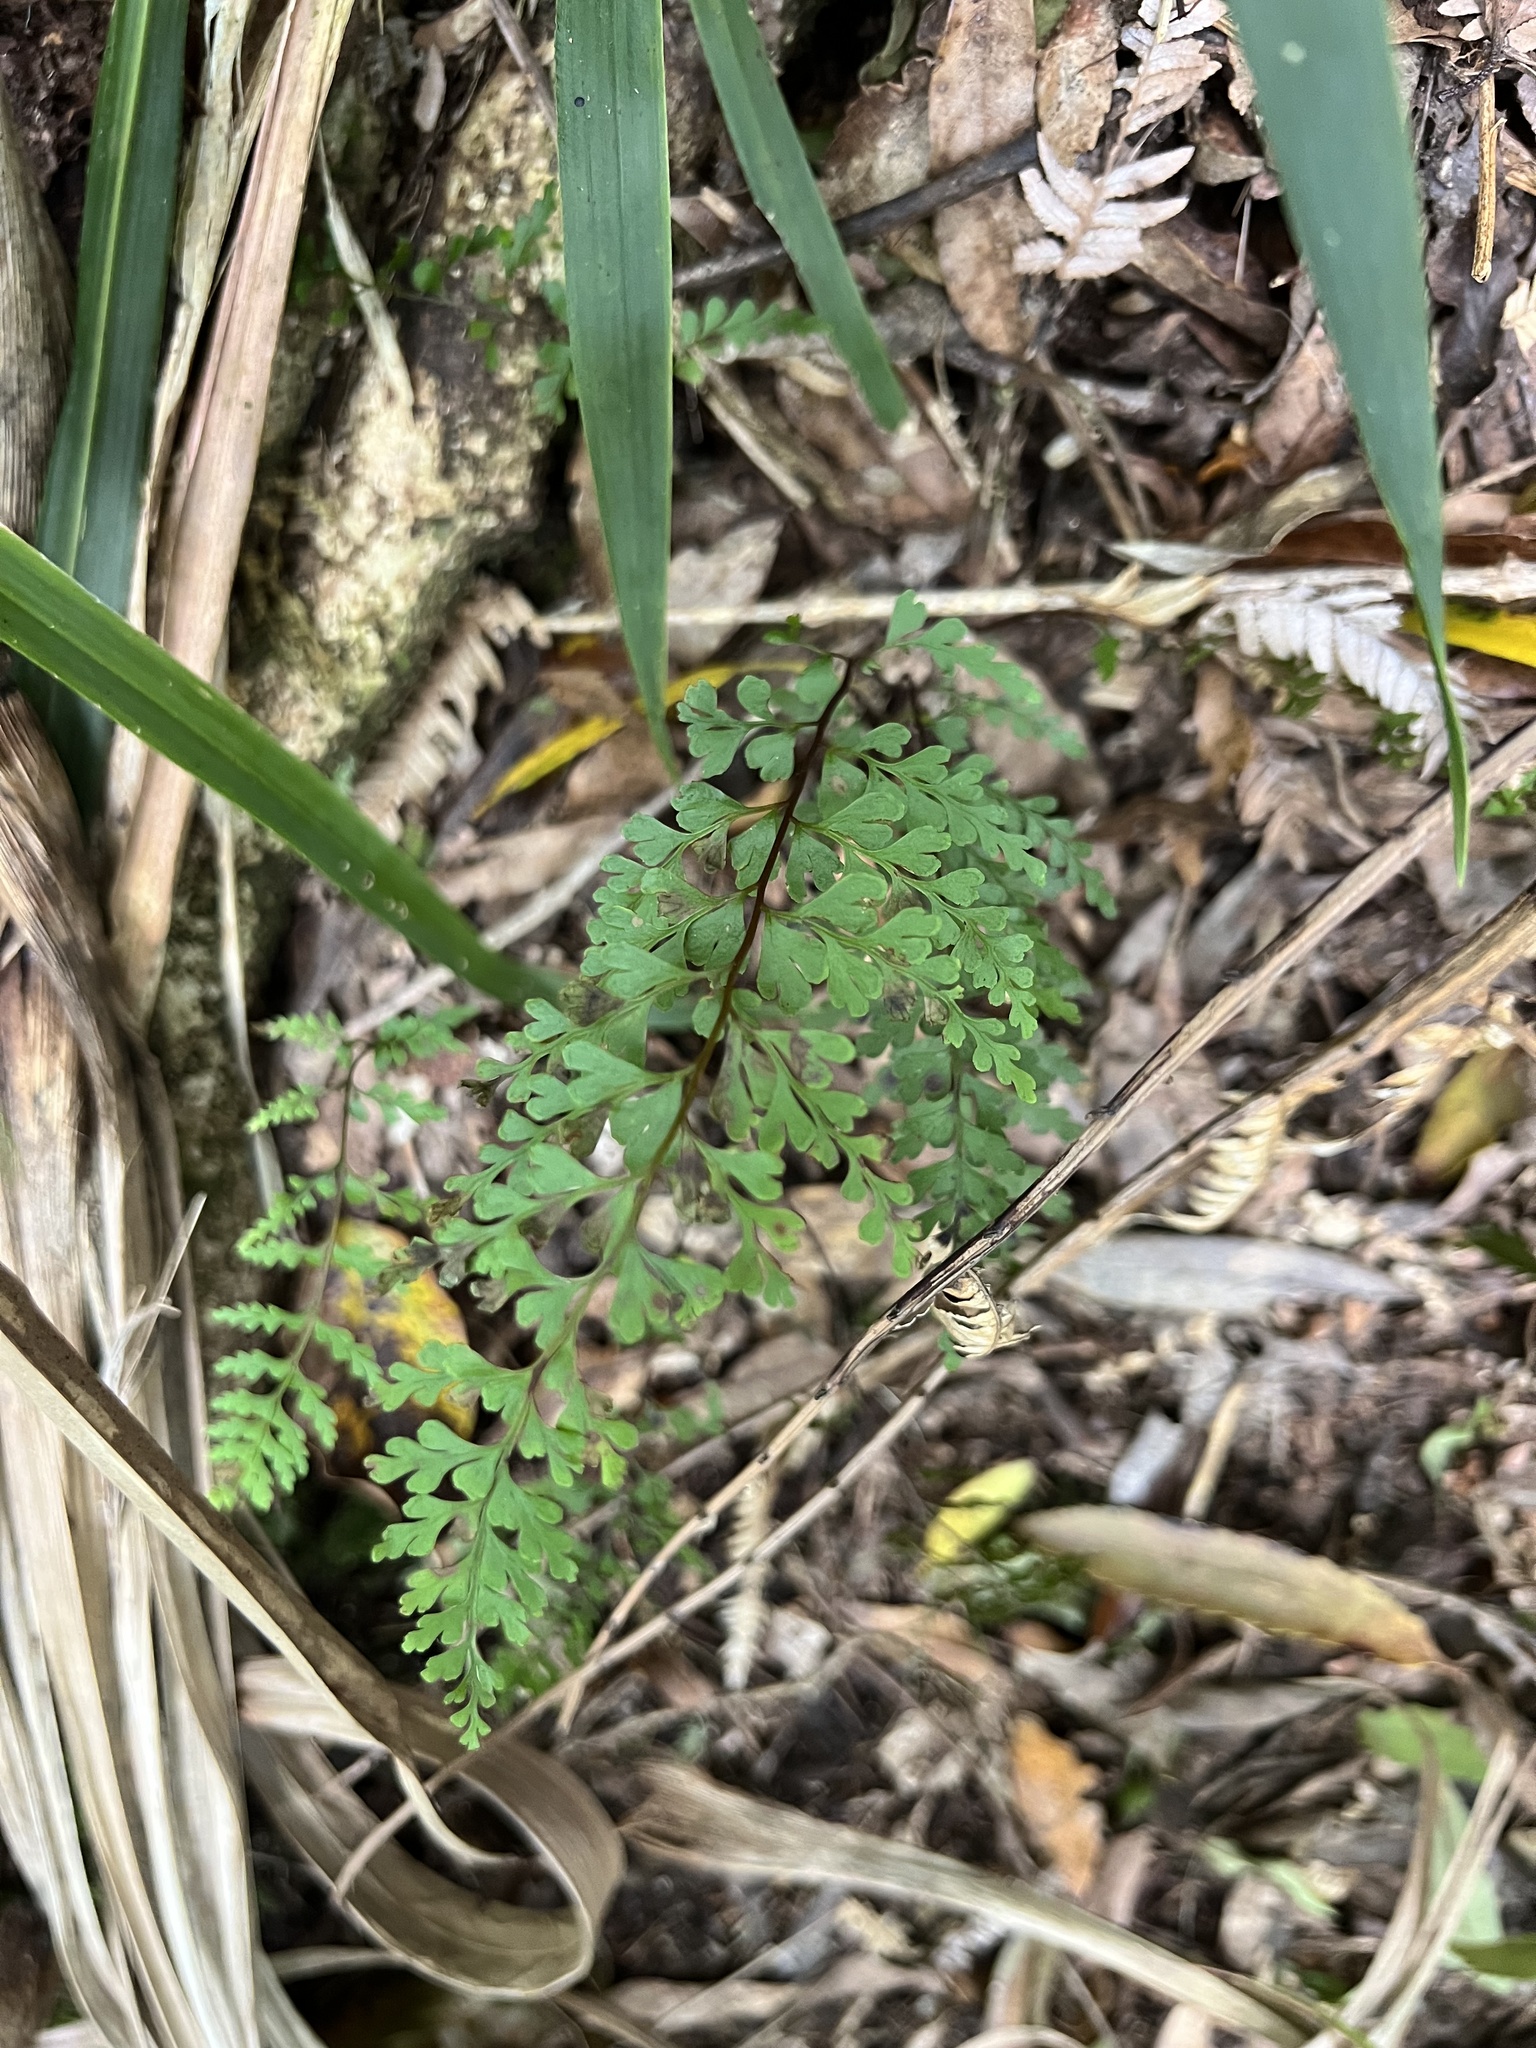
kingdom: Plantae
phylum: Tracheophyta
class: Polypodiopsida
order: Polypodiales
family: Lindsaeaceae
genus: Lindsaea
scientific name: Lindsaea trichomanoides
